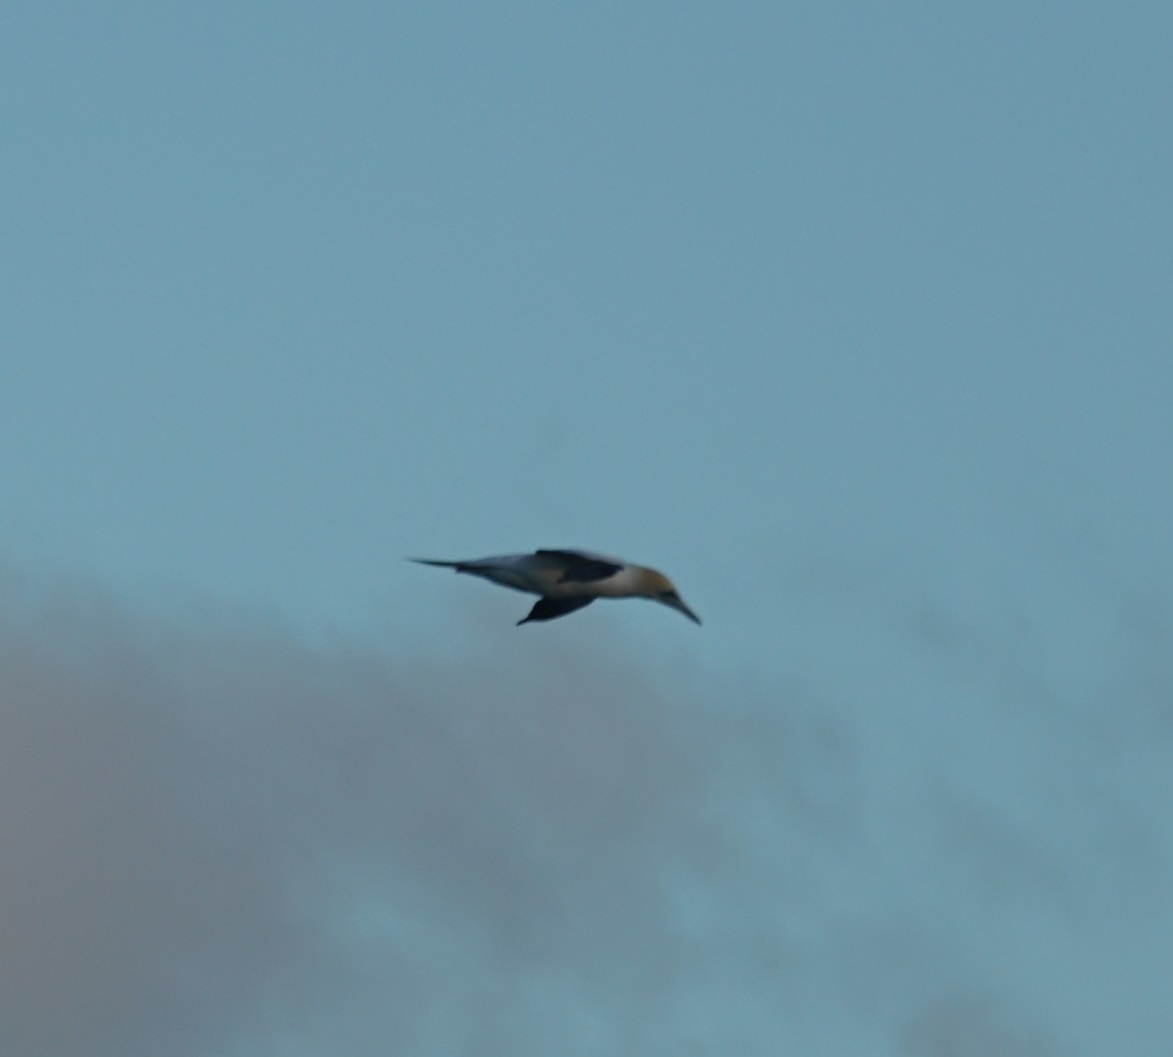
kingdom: Animalia
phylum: Chordata
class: Aves
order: Suliformes
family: Sulidae
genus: Morus
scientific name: Morus serrator
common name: Australasian gannet
